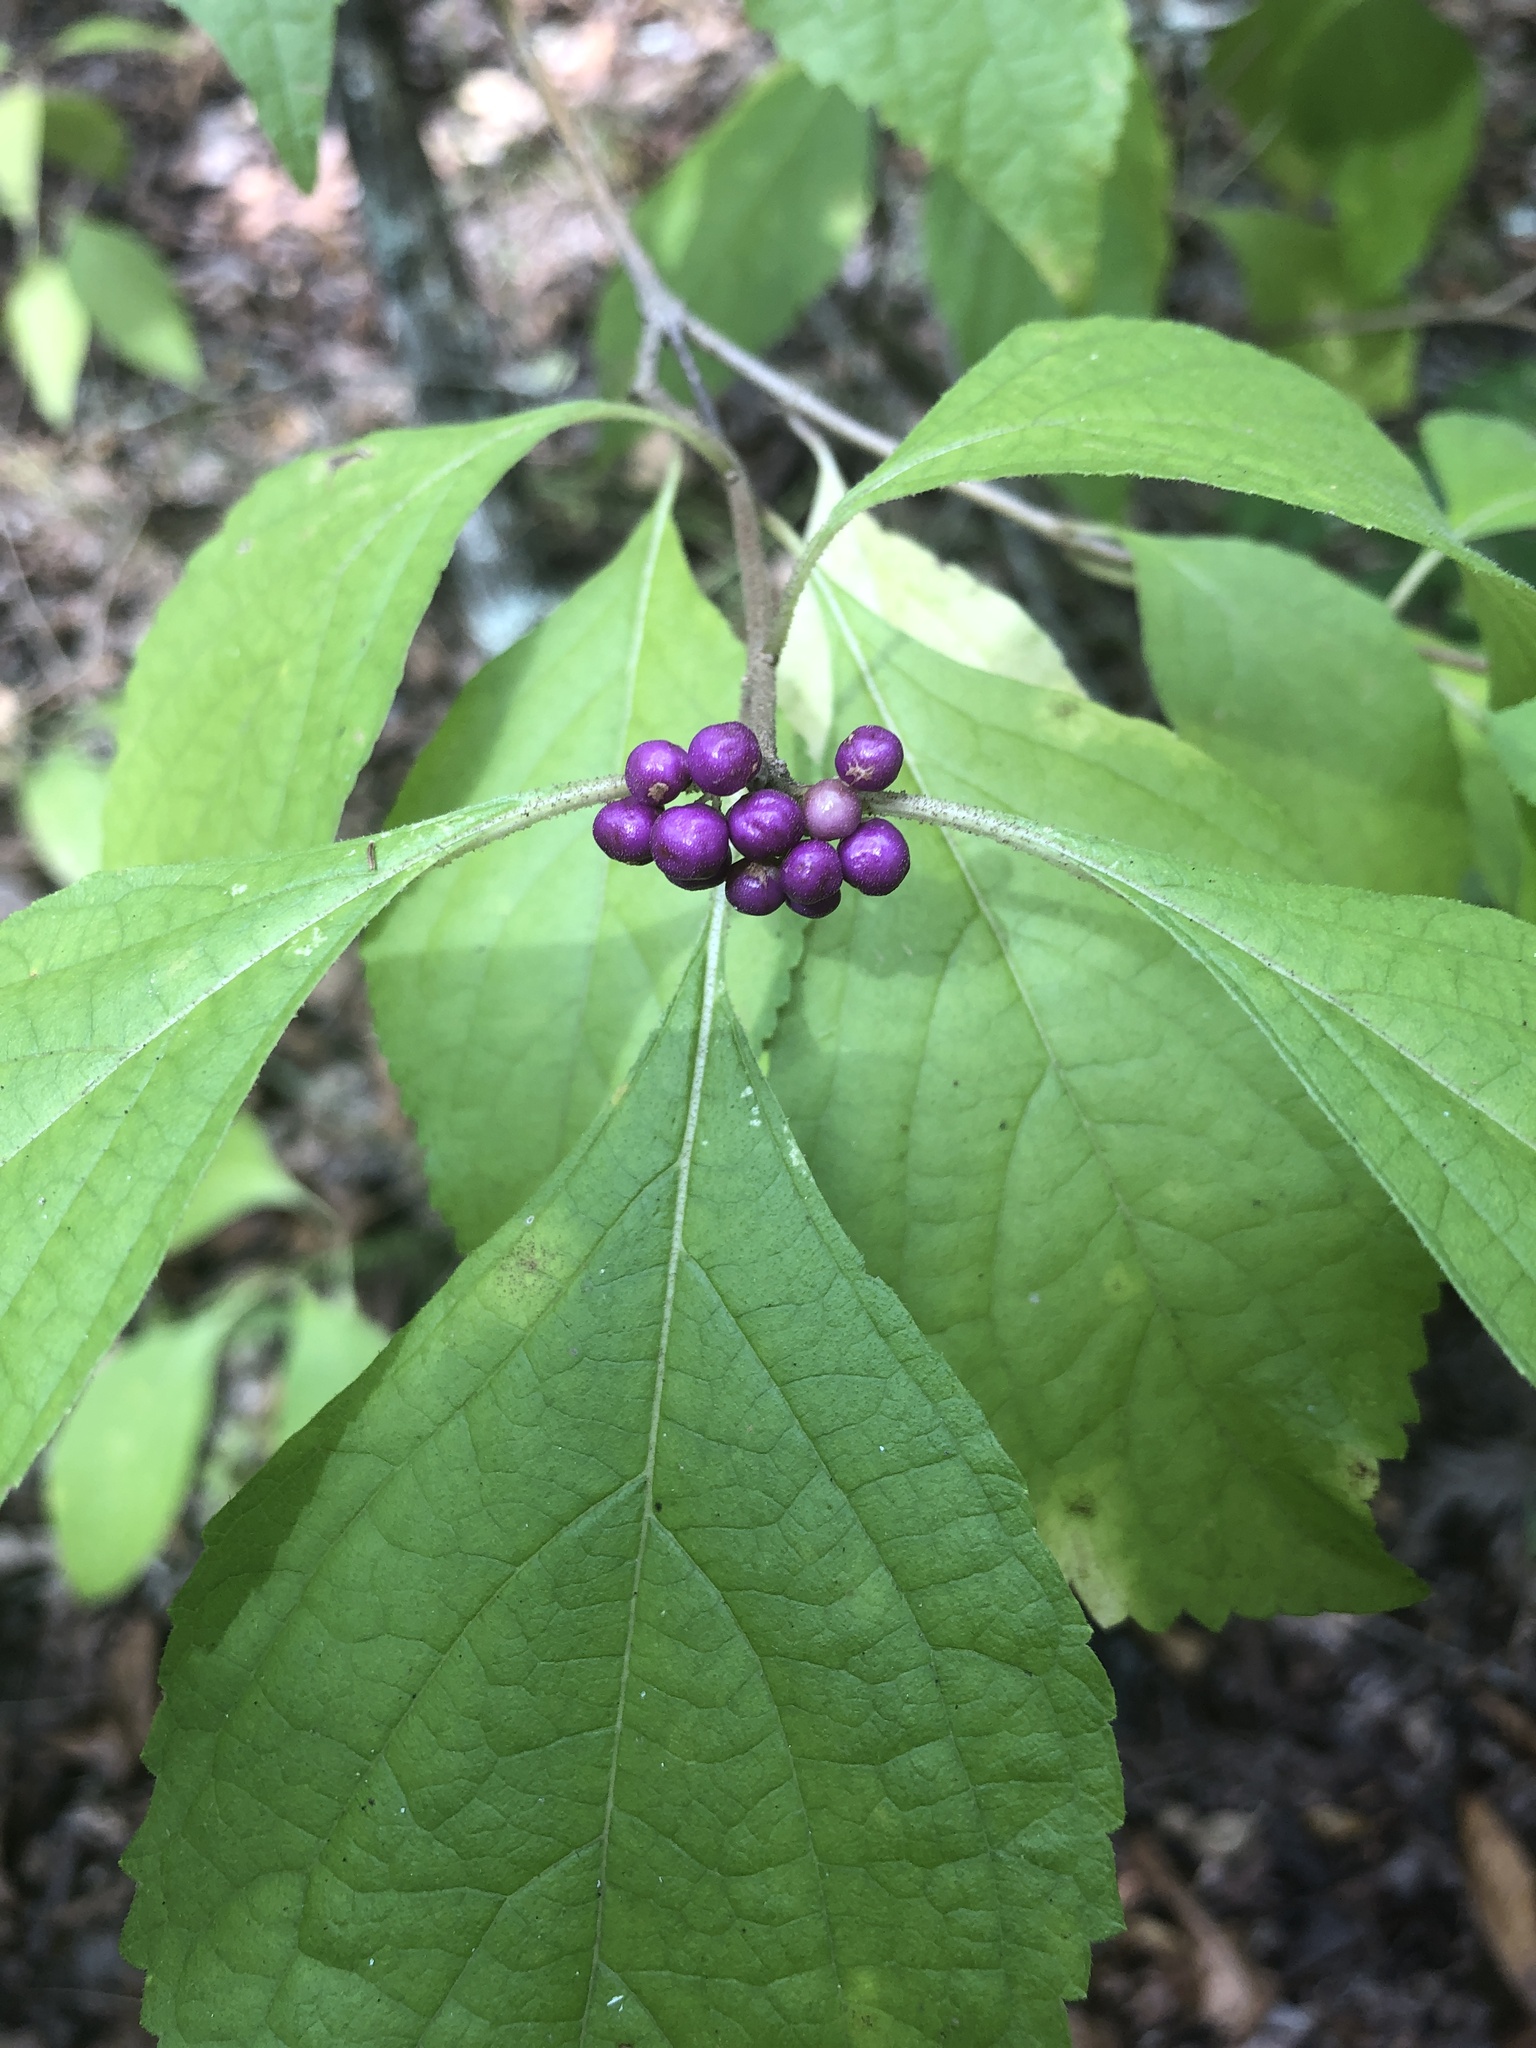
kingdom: Plantae
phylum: Tracheophyta
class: Magnoliopsida
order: Lamiales
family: Lamiaceae
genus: Callicarpa
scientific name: Callicarpa americana
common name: American beautyberry
